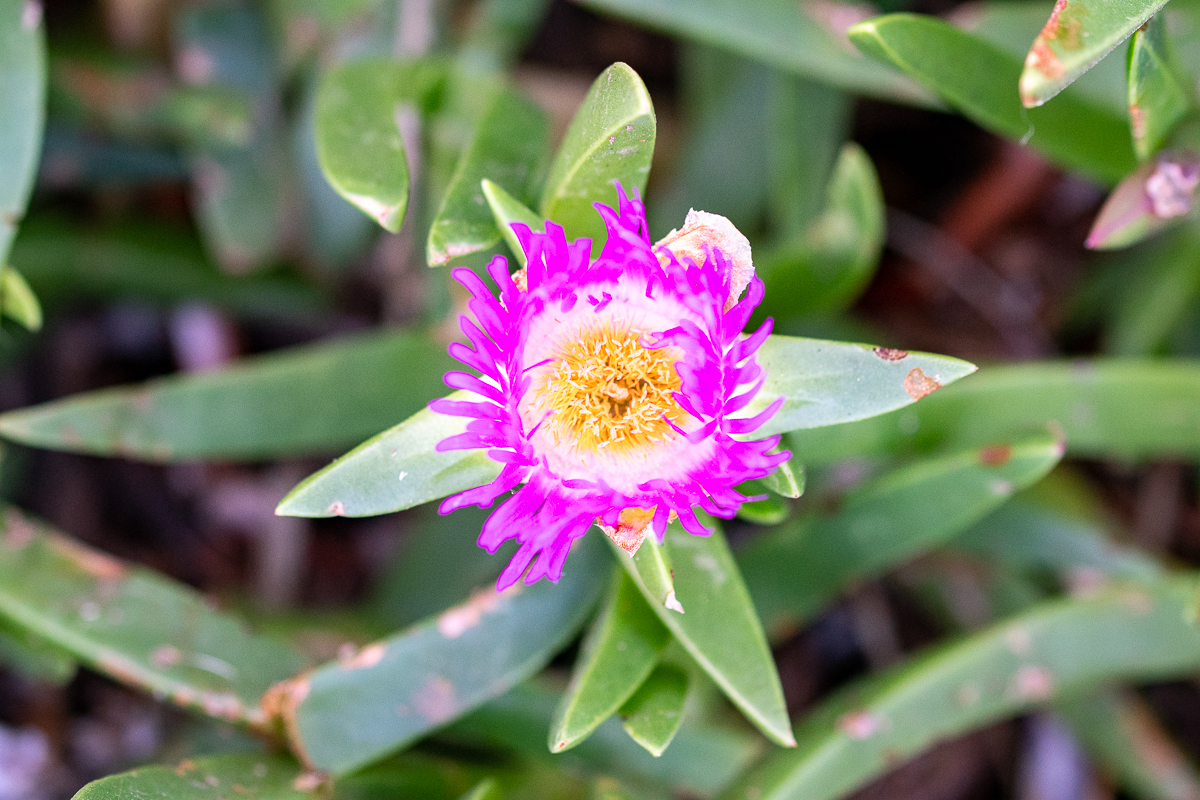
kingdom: Plantae
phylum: Tracheophyta
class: Magnoliopsida
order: Caryophyllales
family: Aizoaceae
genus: Carpobrotus
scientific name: Carpobrotus acinaciformis
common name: Sally-my-handsome
